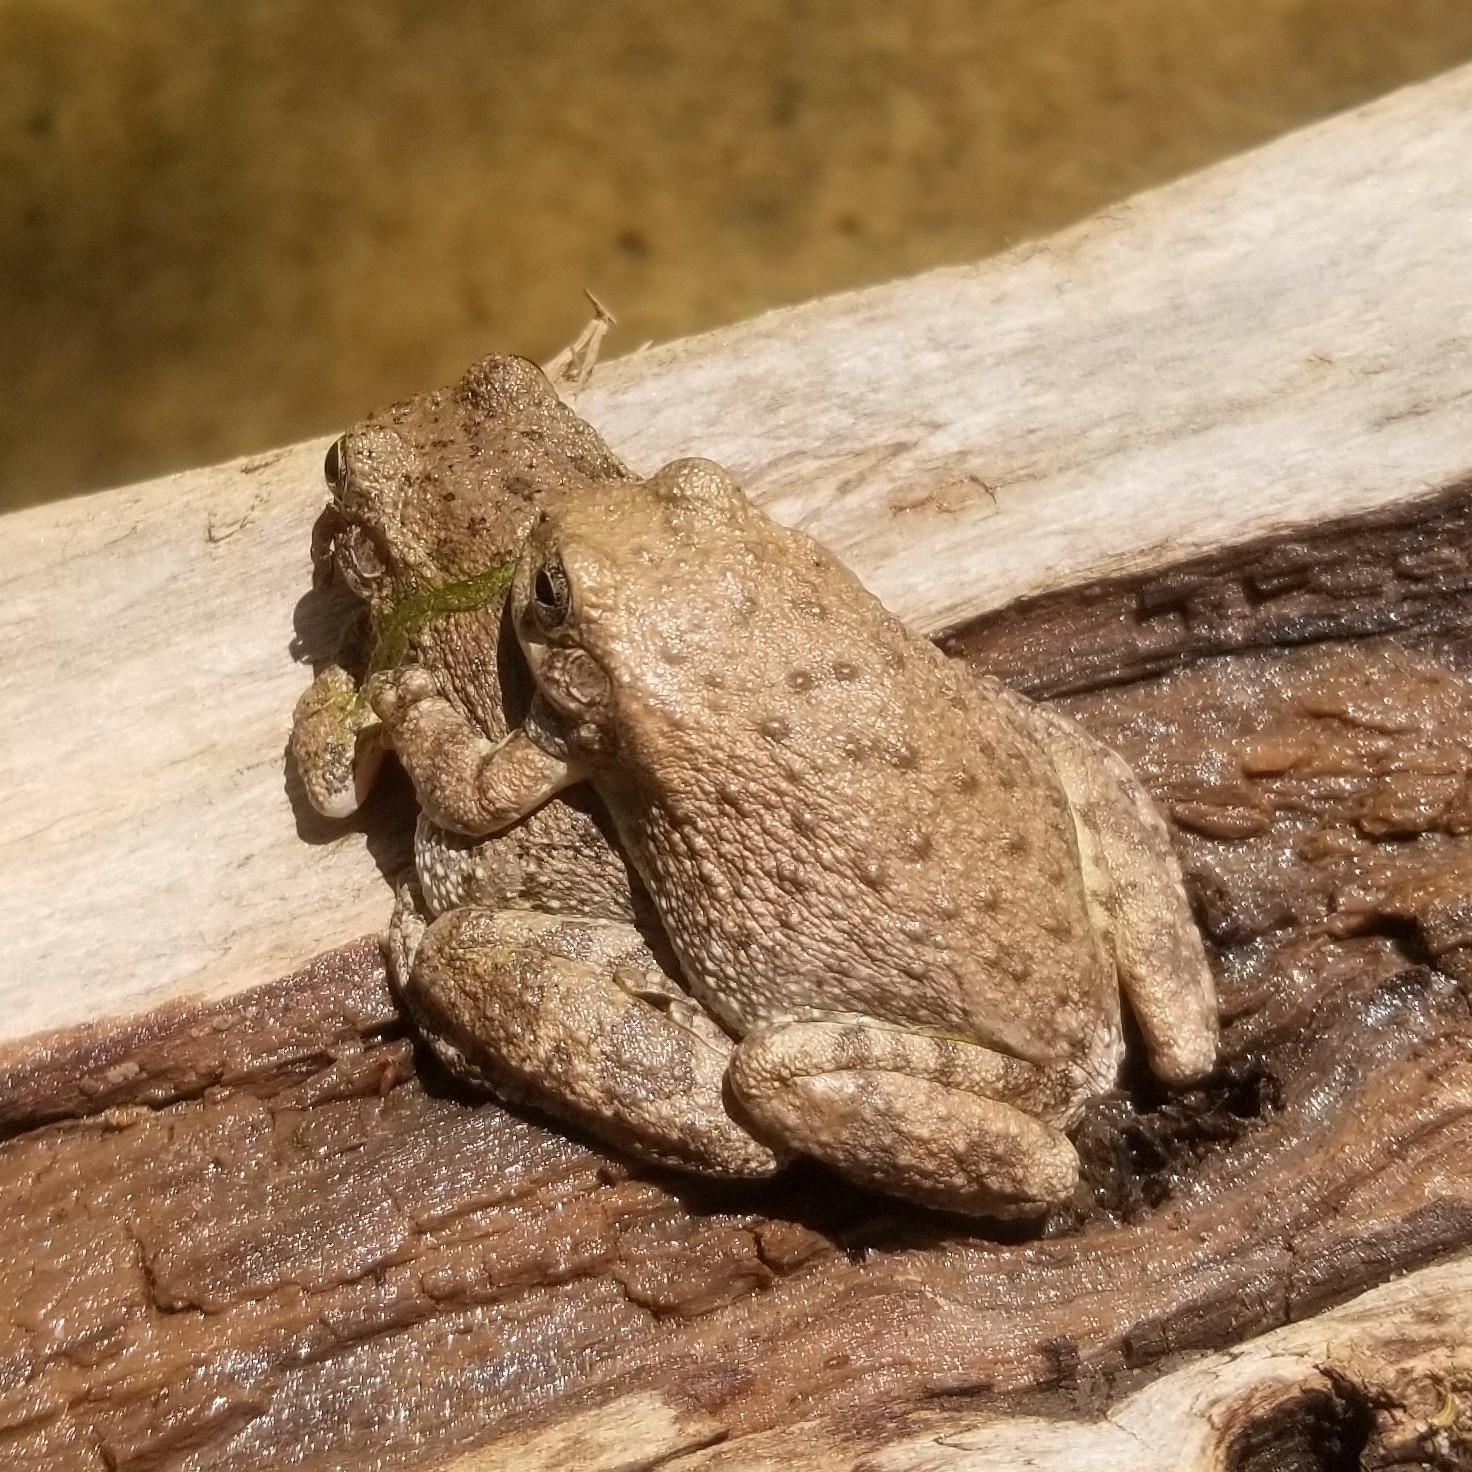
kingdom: Animalia
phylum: Chordata
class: Amphibia
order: Anura
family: Hylidae
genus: Dryophytes
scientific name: Dryophytes arenicolor
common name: Canyon treefrog
